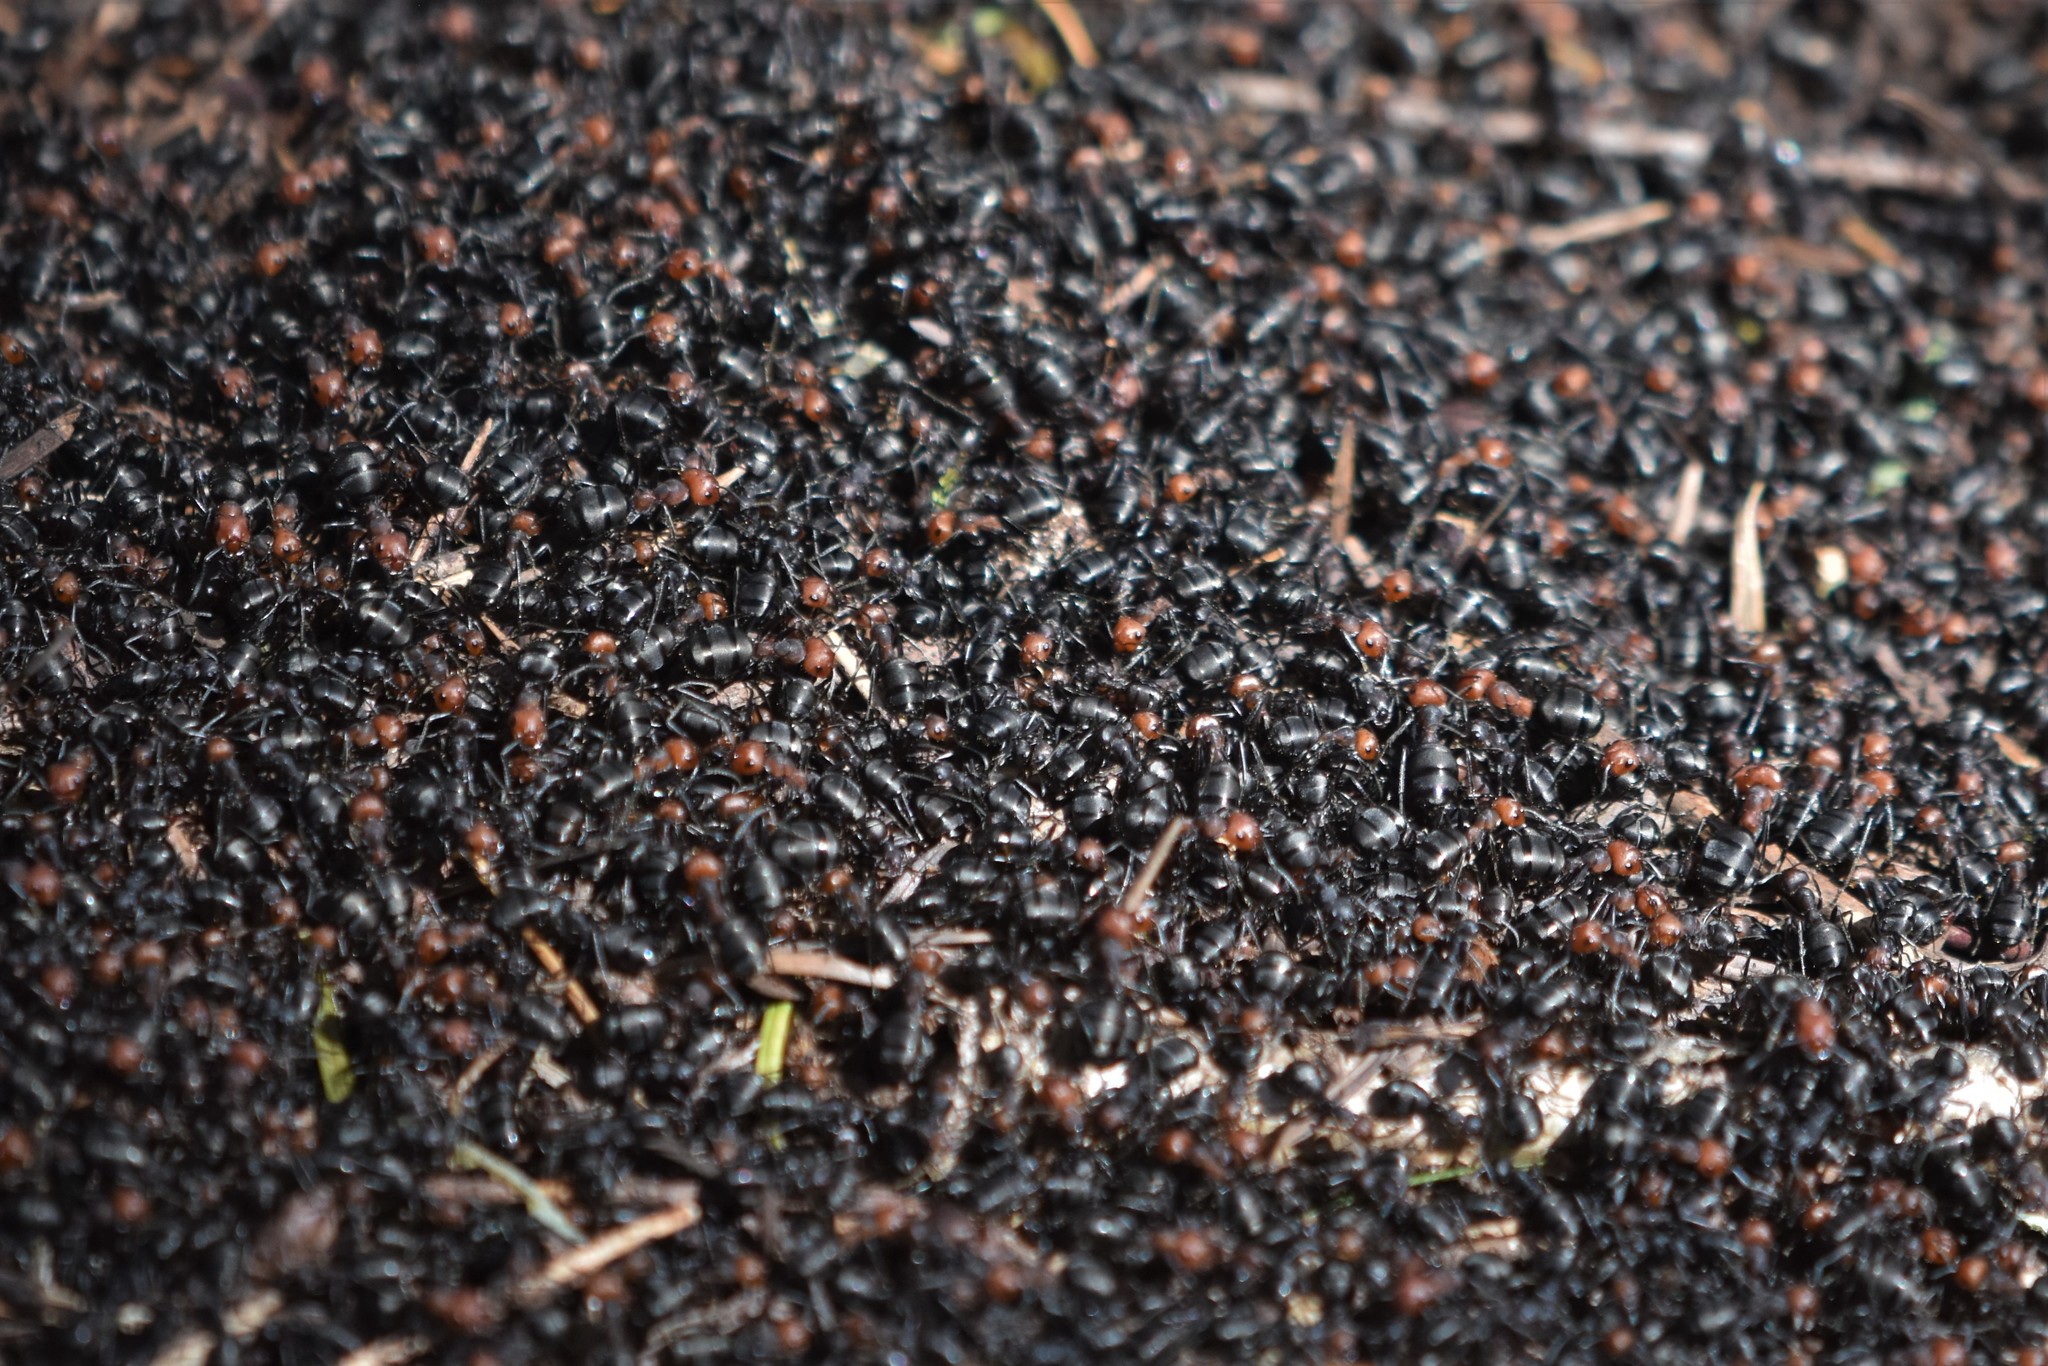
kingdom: Animalia
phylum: Arthropoda
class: Insecta
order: Hymenoptera
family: Formicidae
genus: Formica
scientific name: Formica obscuripes
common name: Western thatching ant
